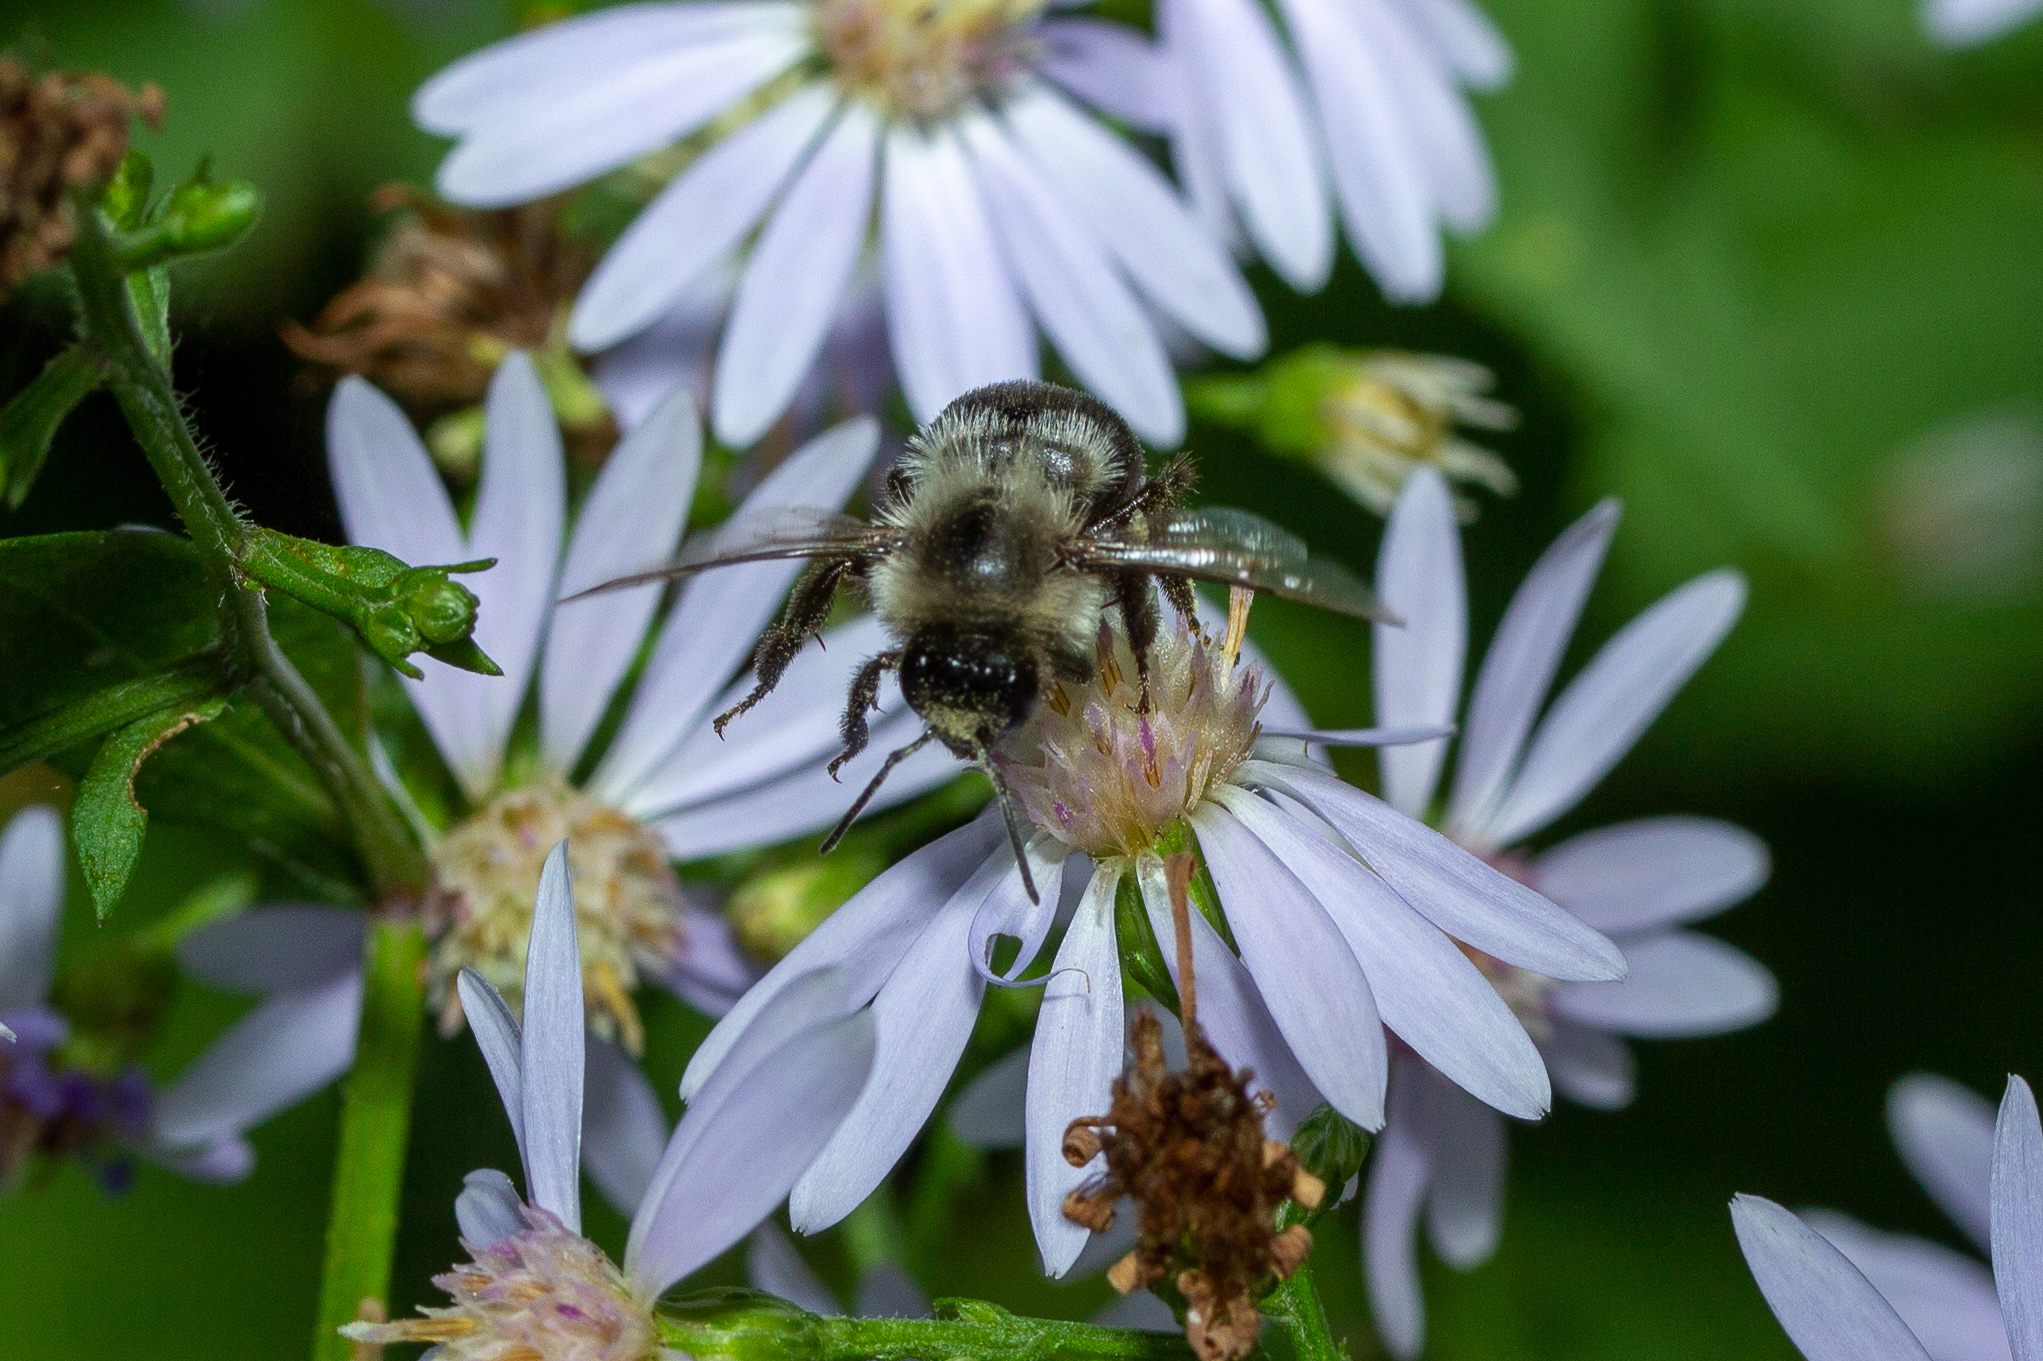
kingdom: Animalia
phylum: Arthropoda
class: Insecta
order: Hymenoptera
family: Apidae
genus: Bombus
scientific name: Bombus impatiens
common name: Common eastern bumble bee
